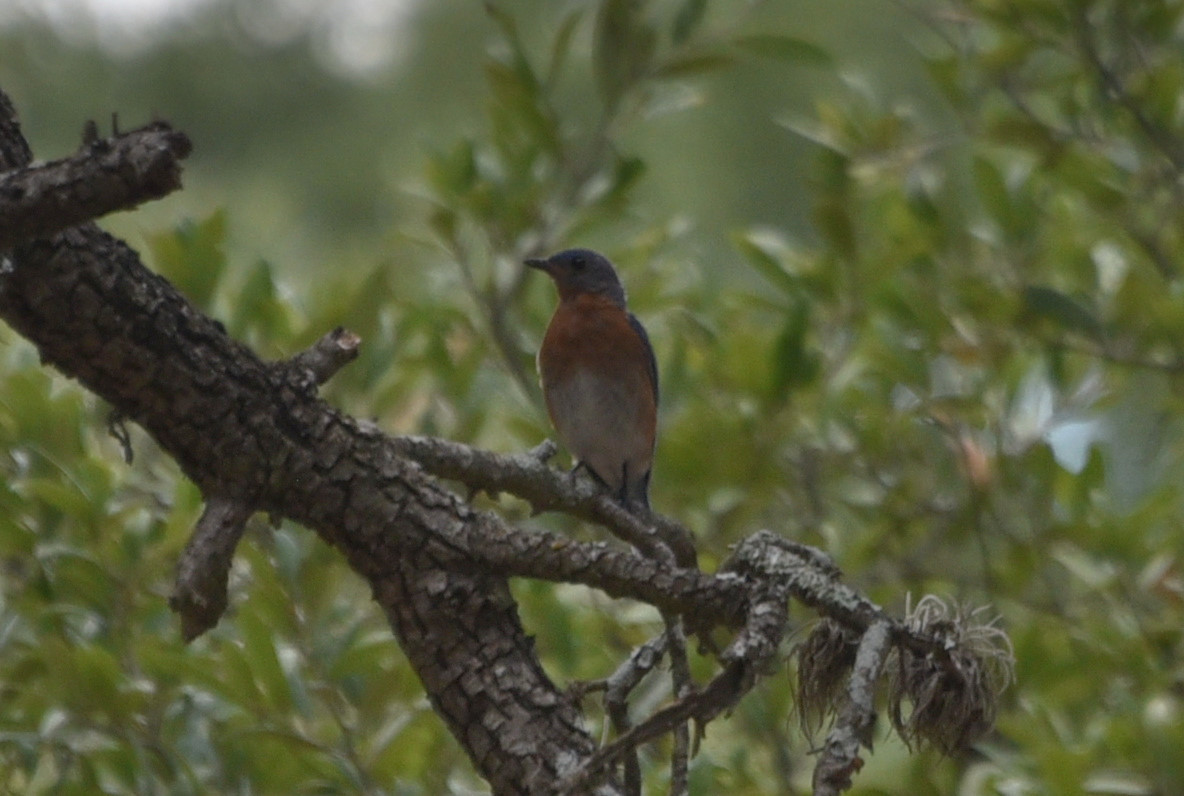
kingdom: Animalia
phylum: Chordata
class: Aves
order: Passeriformes
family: Turdidae
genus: Sialia
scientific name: Sialia sialis
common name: Eastern bluebird
